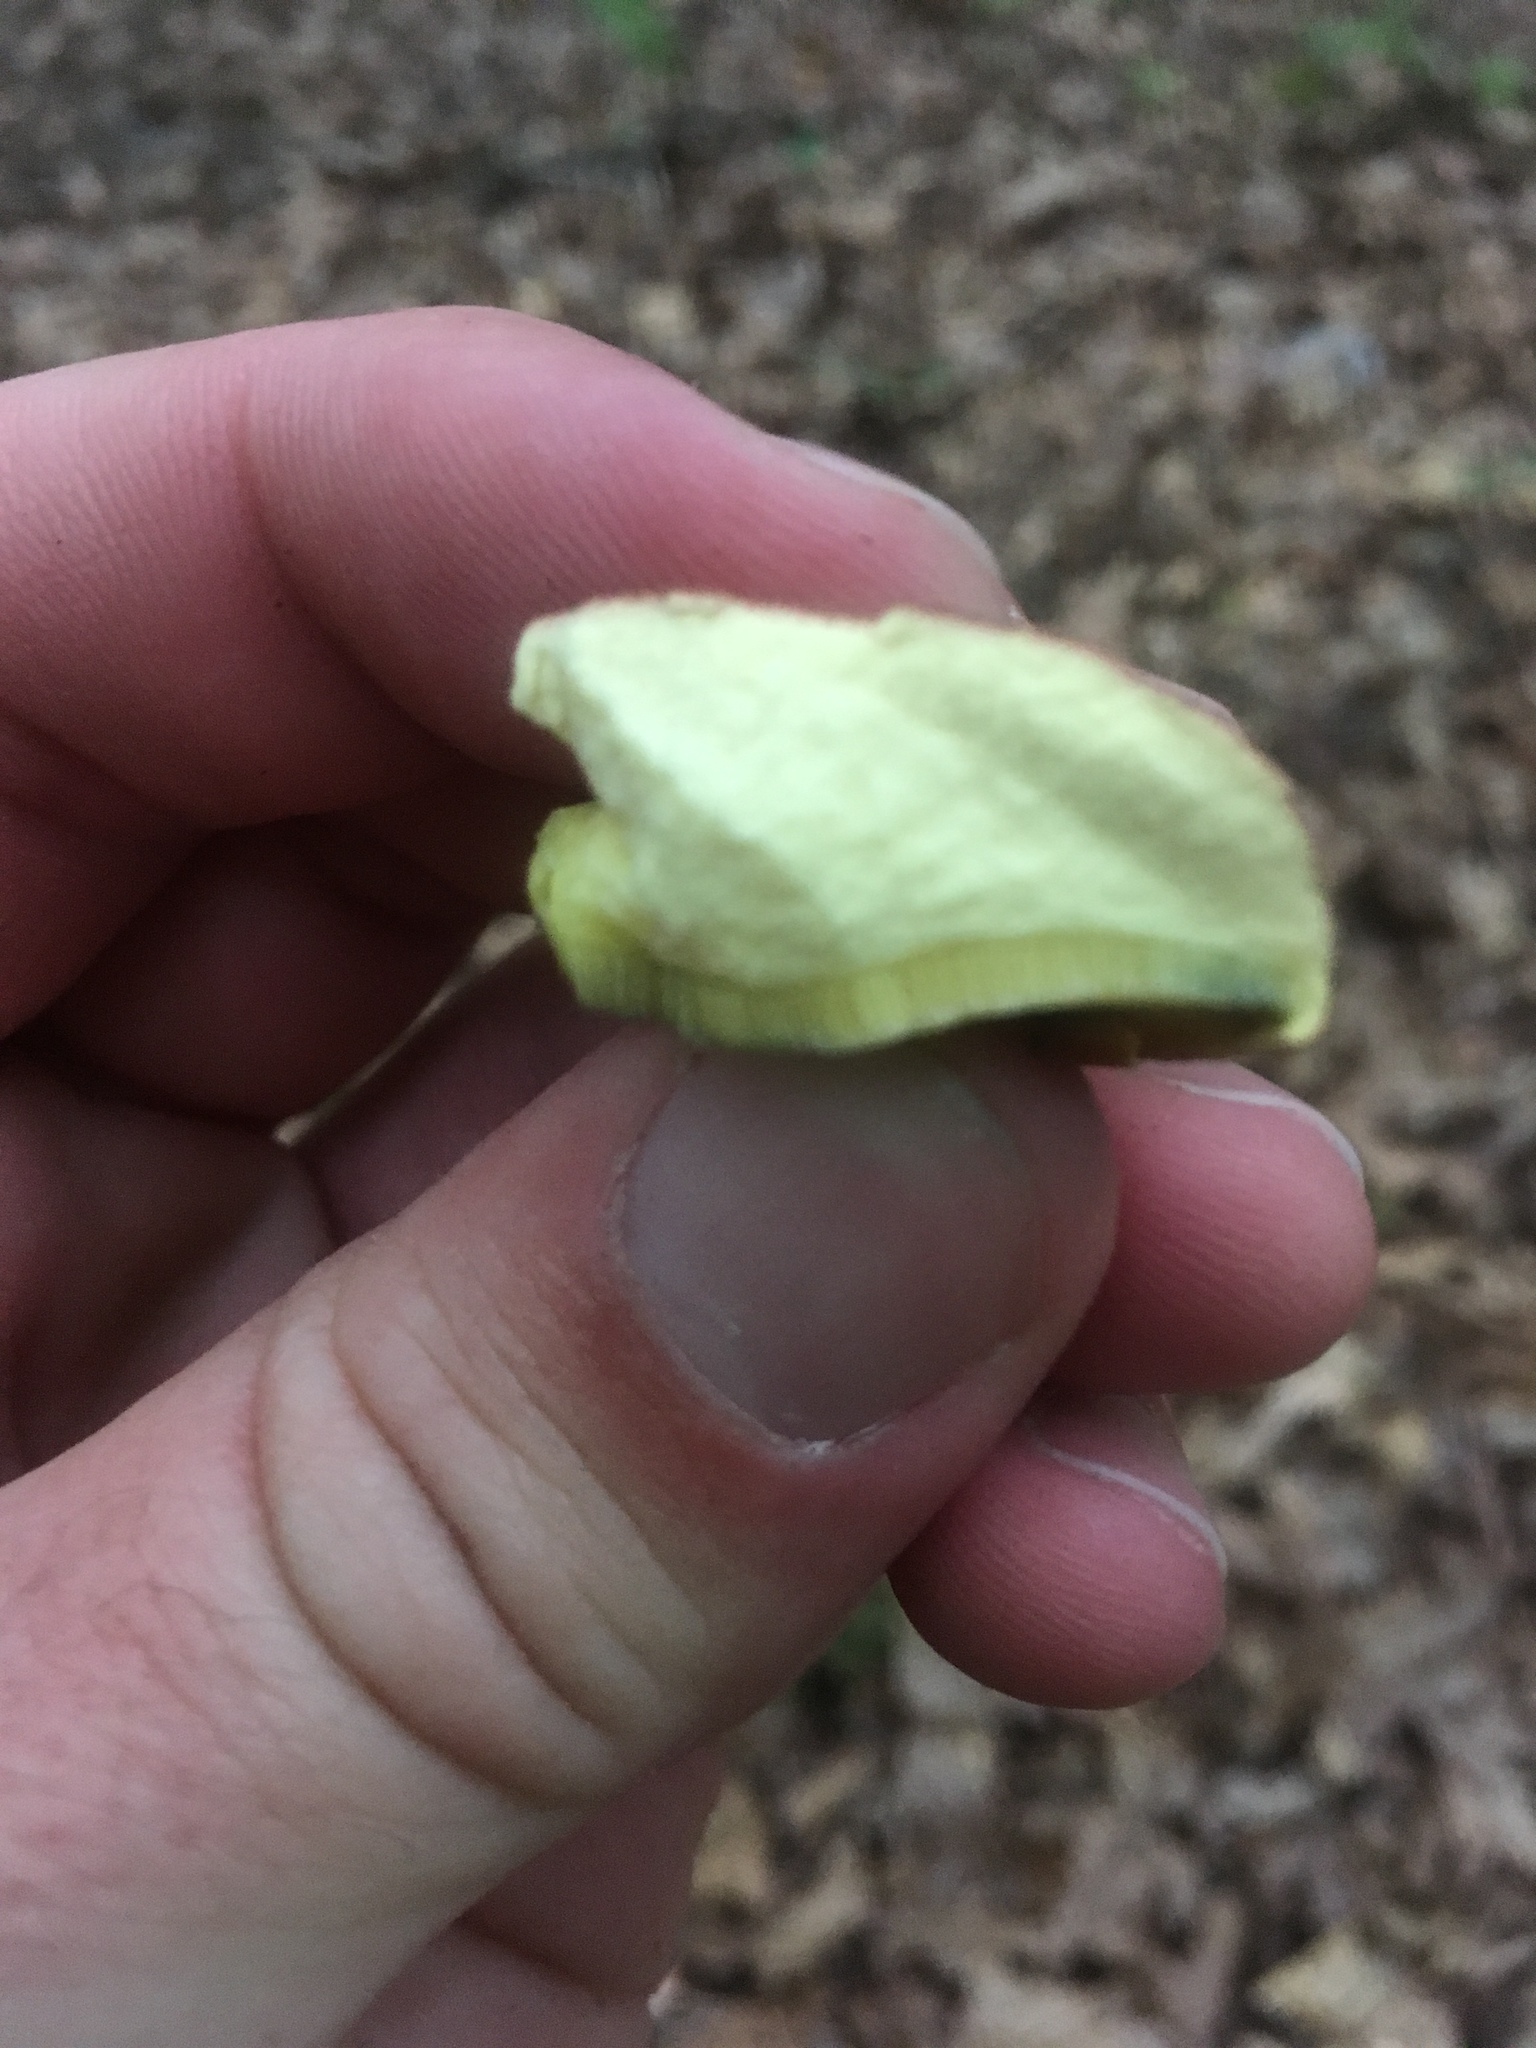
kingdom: Fungi
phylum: Basidiomycota
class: Agaricomycetes
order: Boletales
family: Boletaceae
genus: Baorangia
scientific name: Baorangia bicolor
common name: Two-colored bolete
